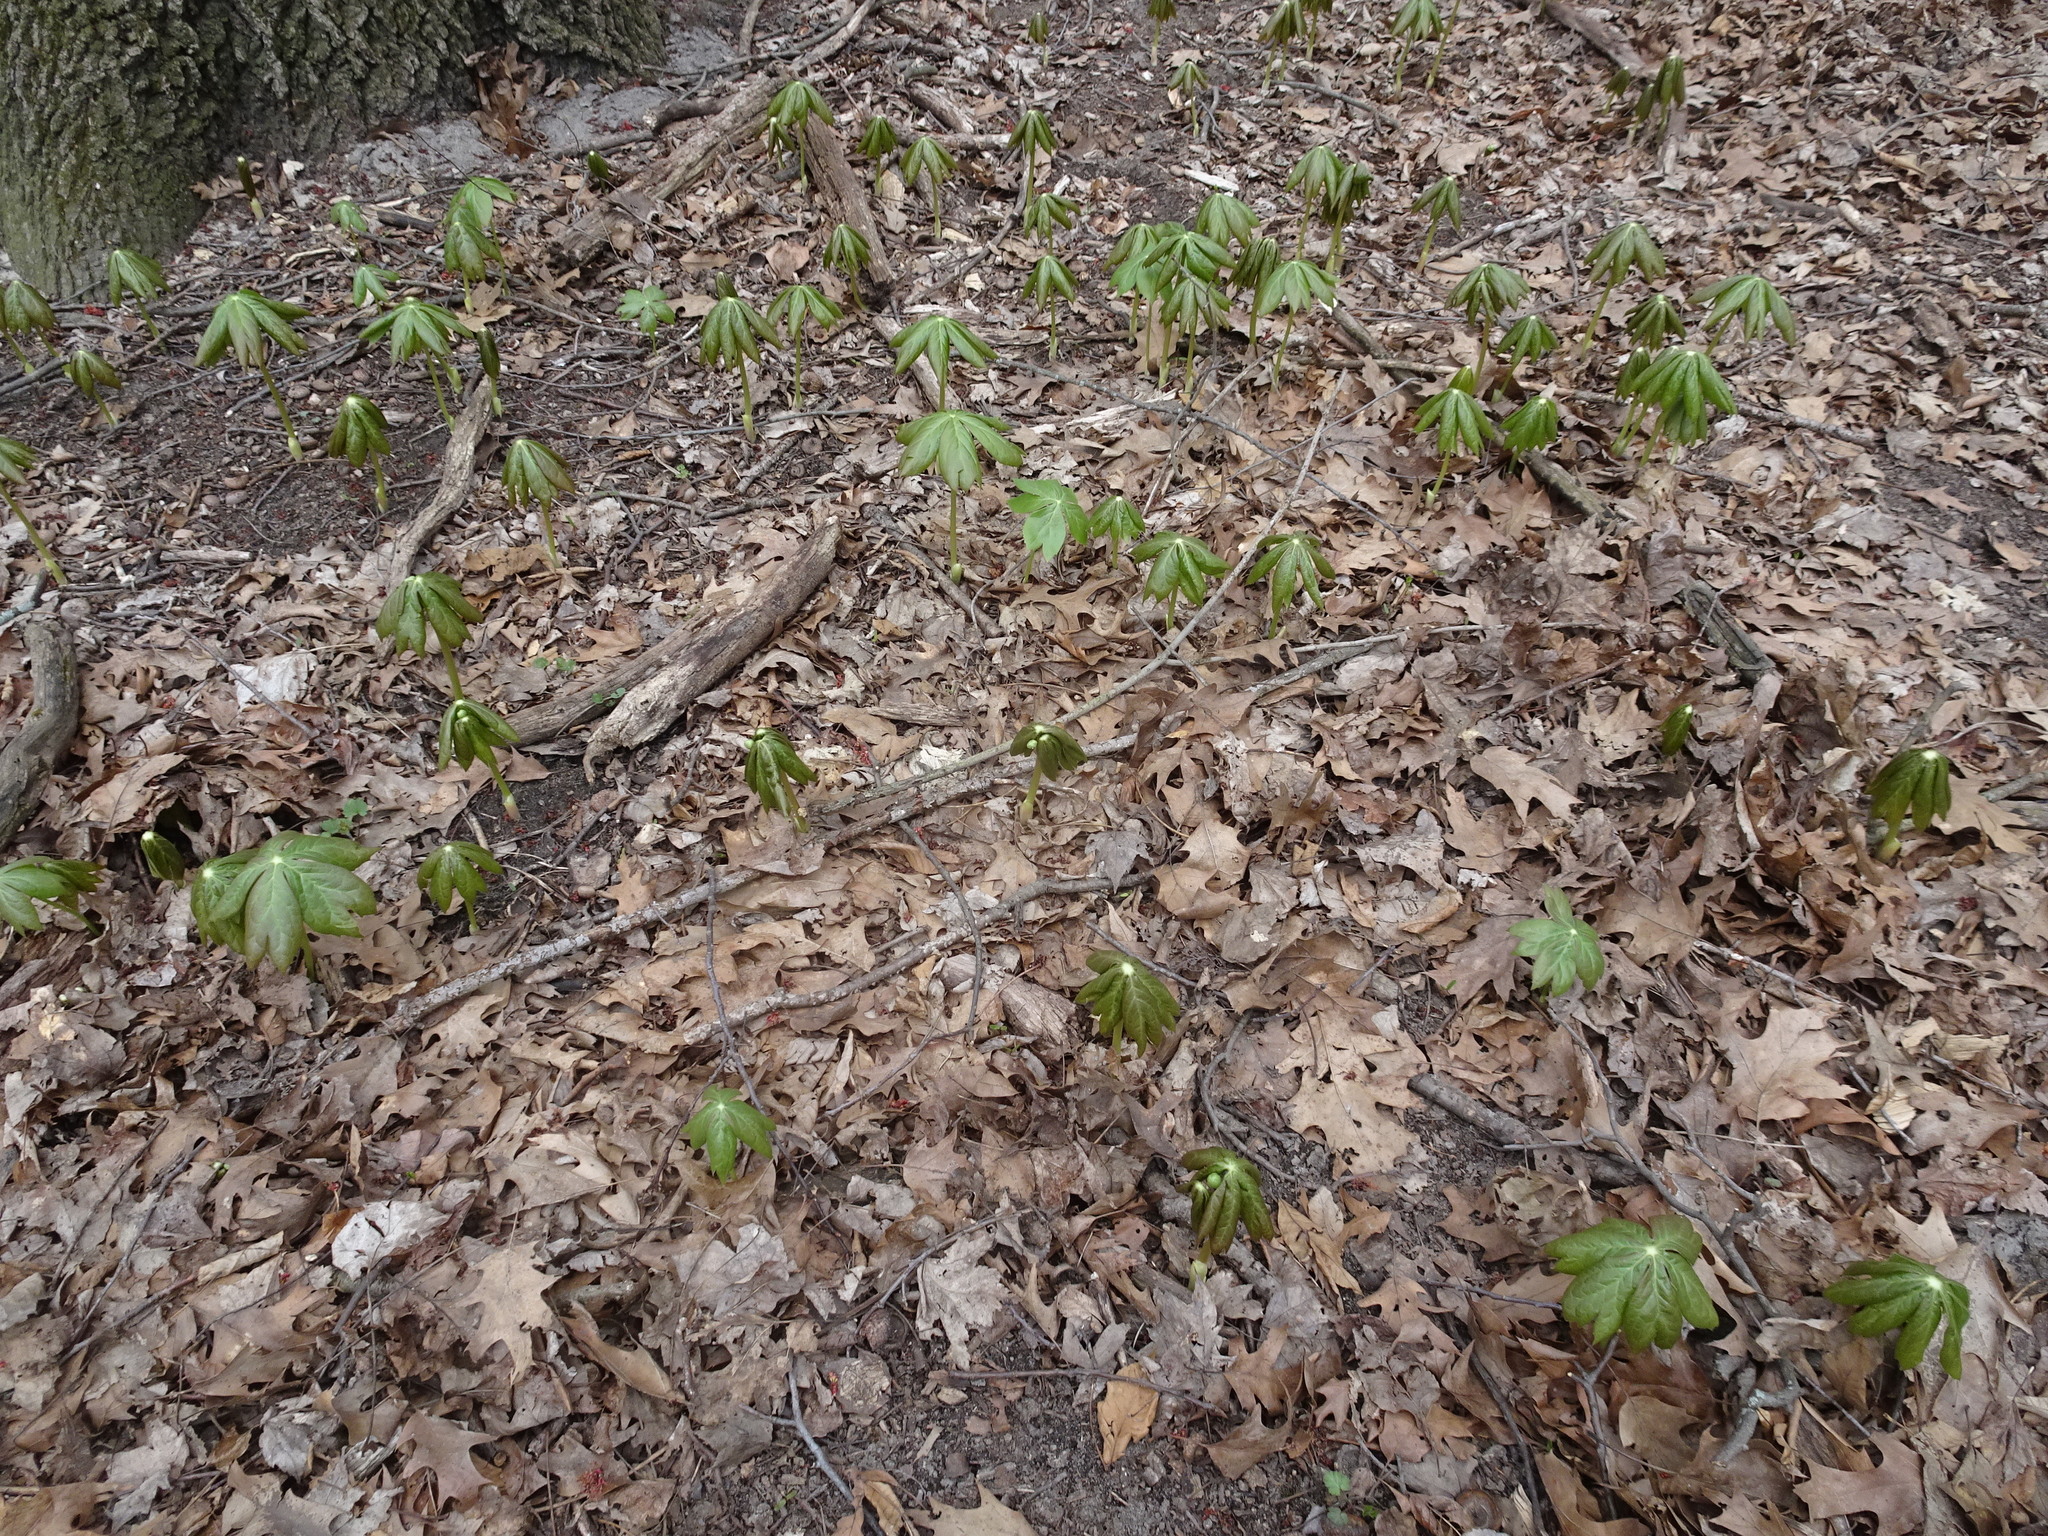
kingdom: Plantae
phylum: Tracheophyta
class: Magnoliopsida
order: Ranunculales
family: Berberidaceae
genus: Podophyllum
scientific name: Podophyllum peltatum
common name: Wild mandrake
